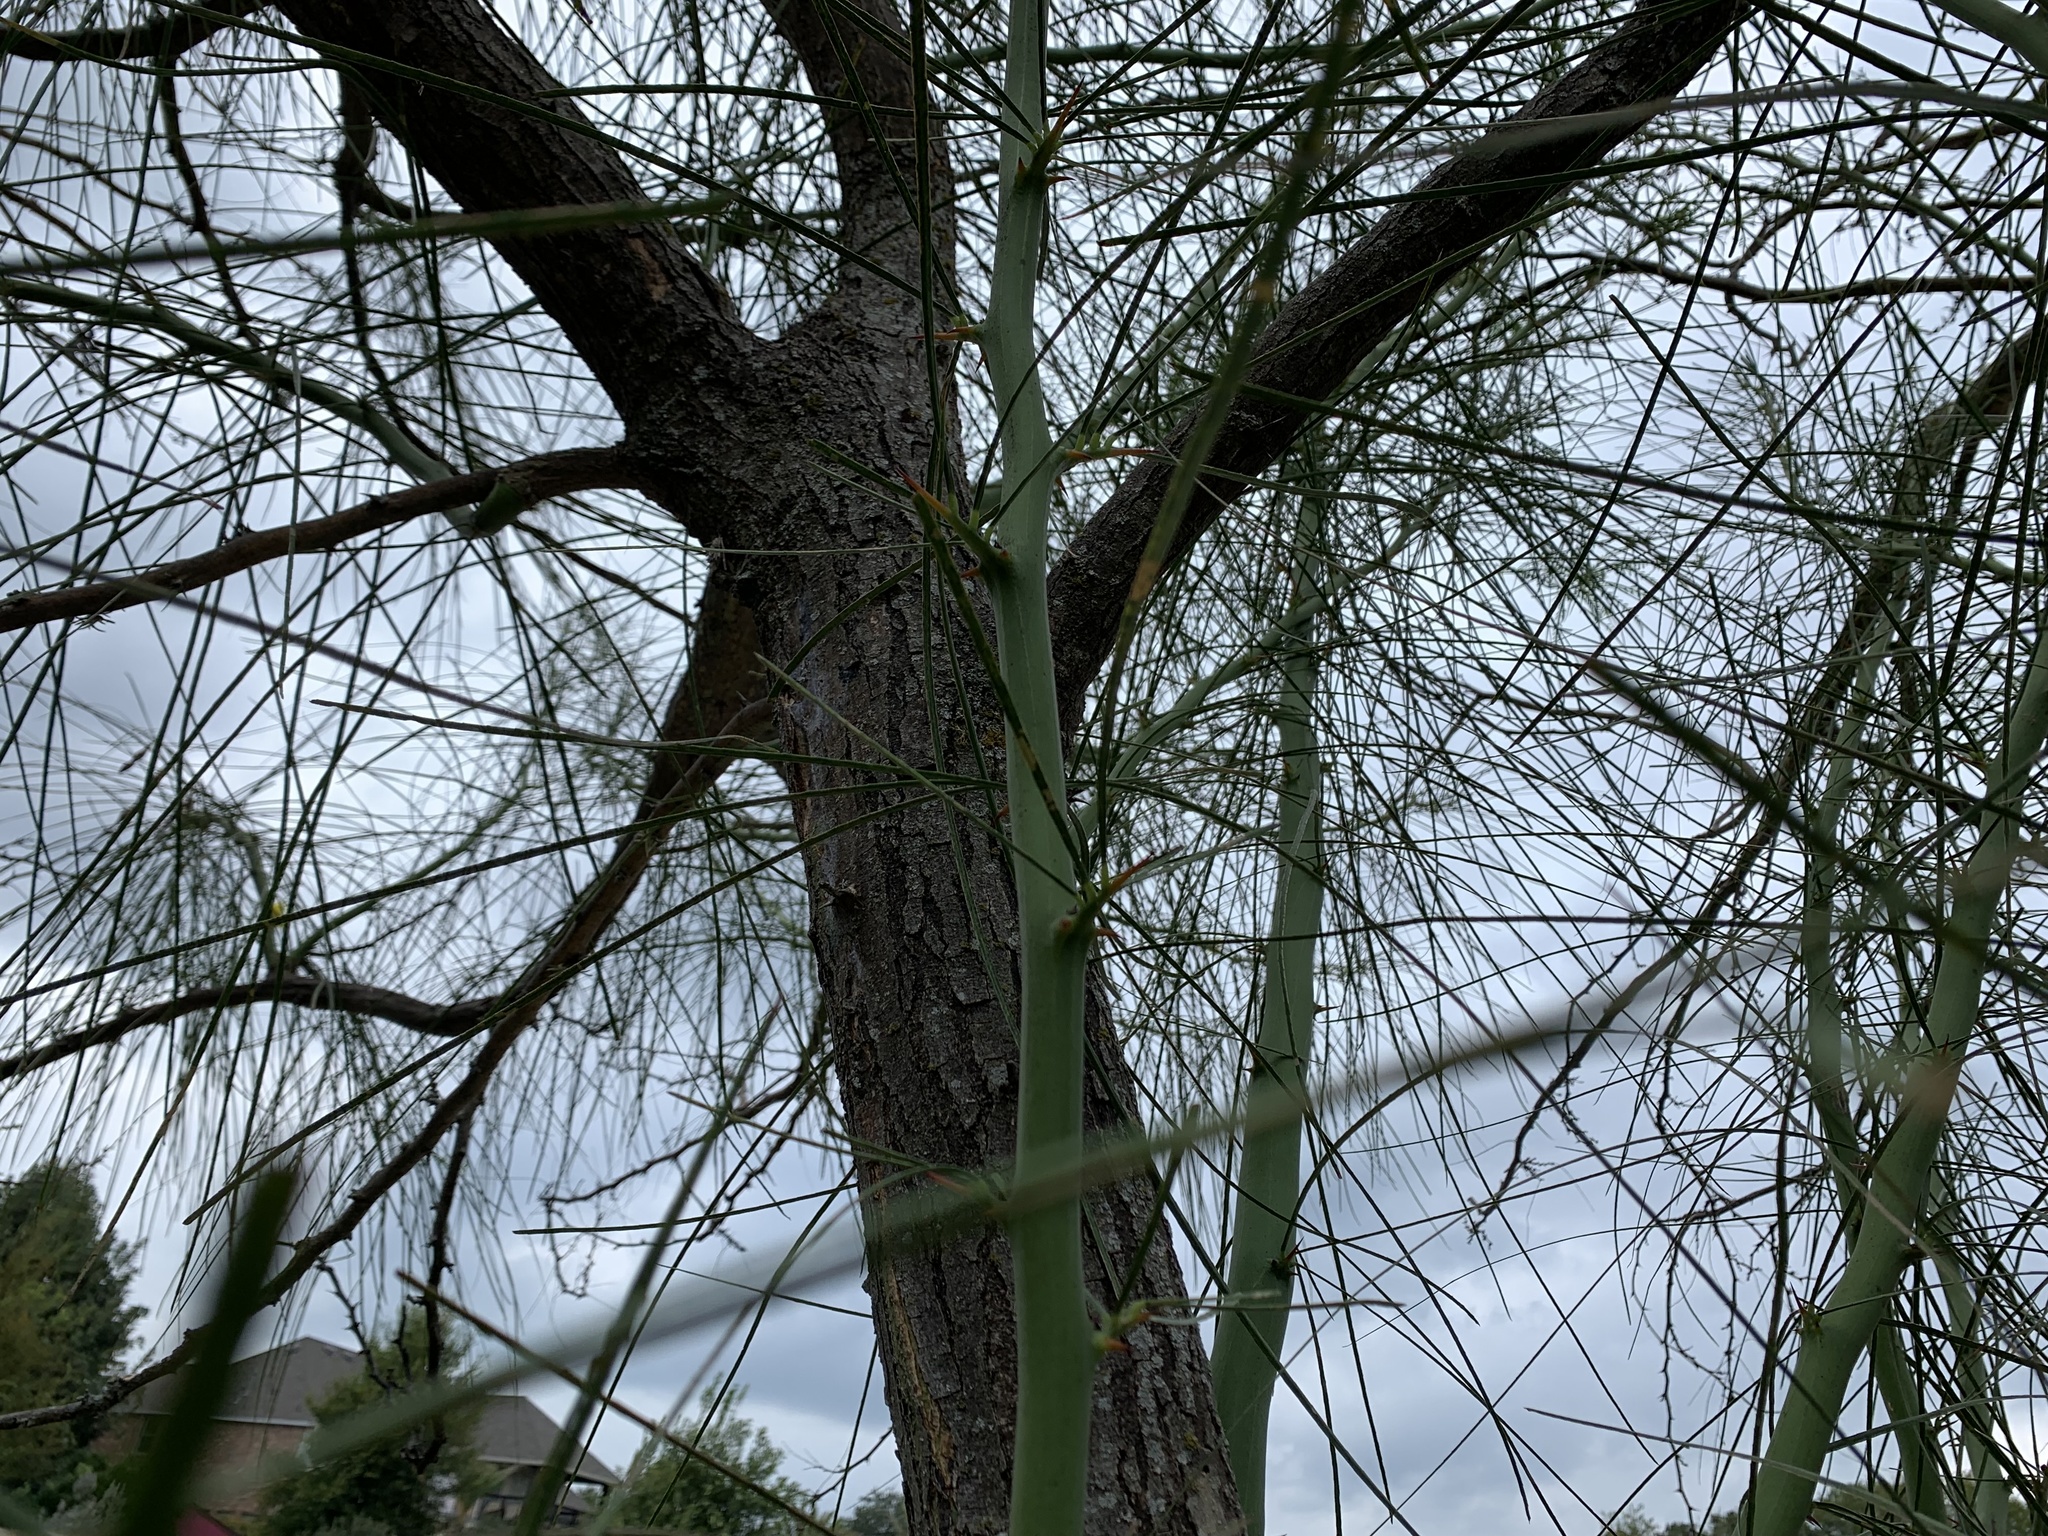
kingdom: Plantae
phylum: Tracheophyta
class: Magnoliopsida
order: Fabales
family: Fabaceae
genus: Parkinsonia
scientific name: Parkinsonia aculeata
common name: Jerusalem thorn
